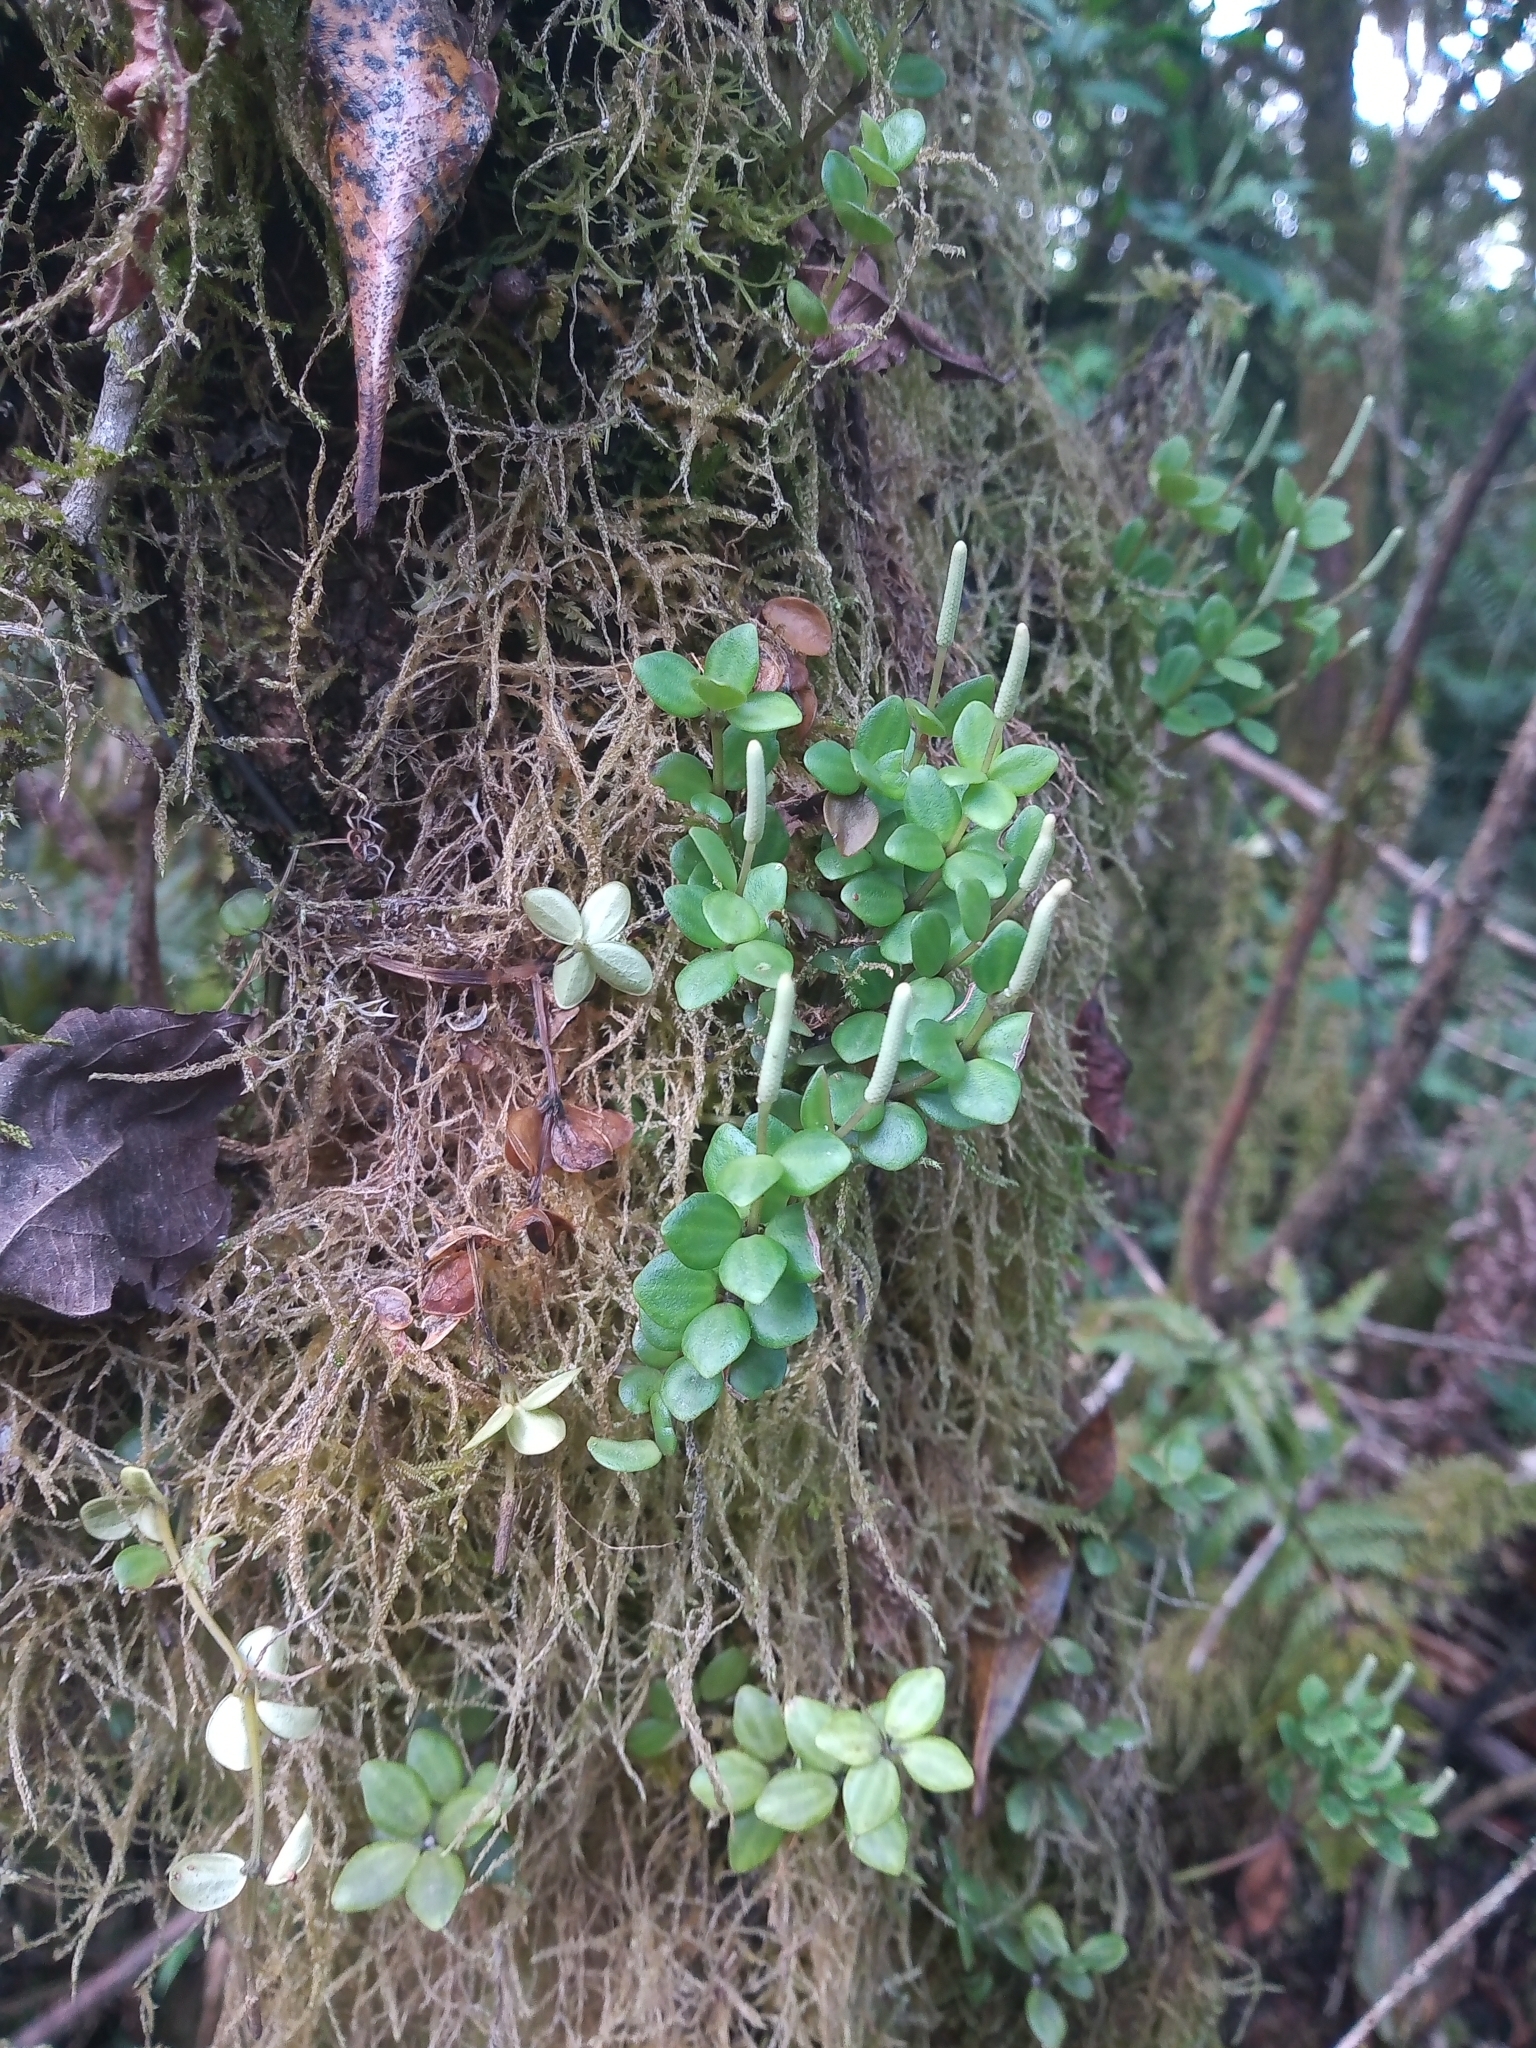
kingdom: Plantae
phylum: Tracheophyta
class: Magnoliopsida
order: Piperales
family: Piperaceae
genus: Peperomia
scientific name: Peperomia tetraphylla
